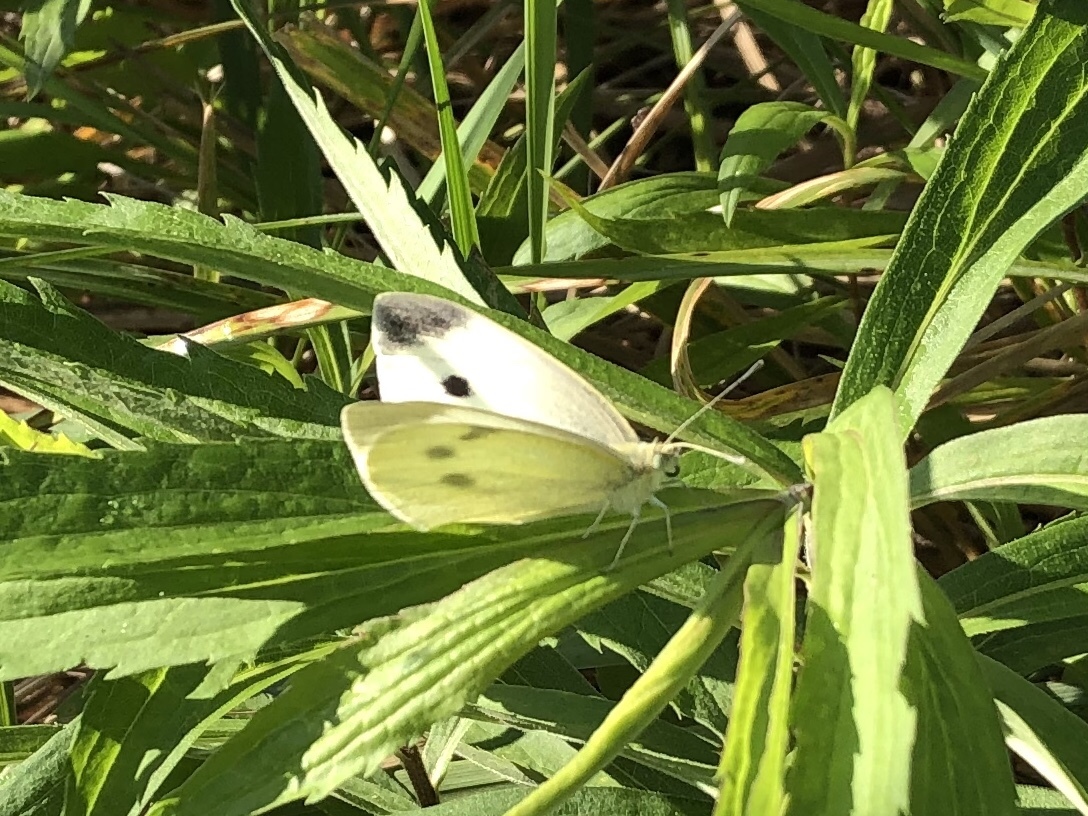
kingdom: Animalia
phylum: Arthropoda
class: Insecta
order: Lepidoptera
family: Pieridae
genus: Pieris
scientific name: Pieris rapae
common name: Small white
